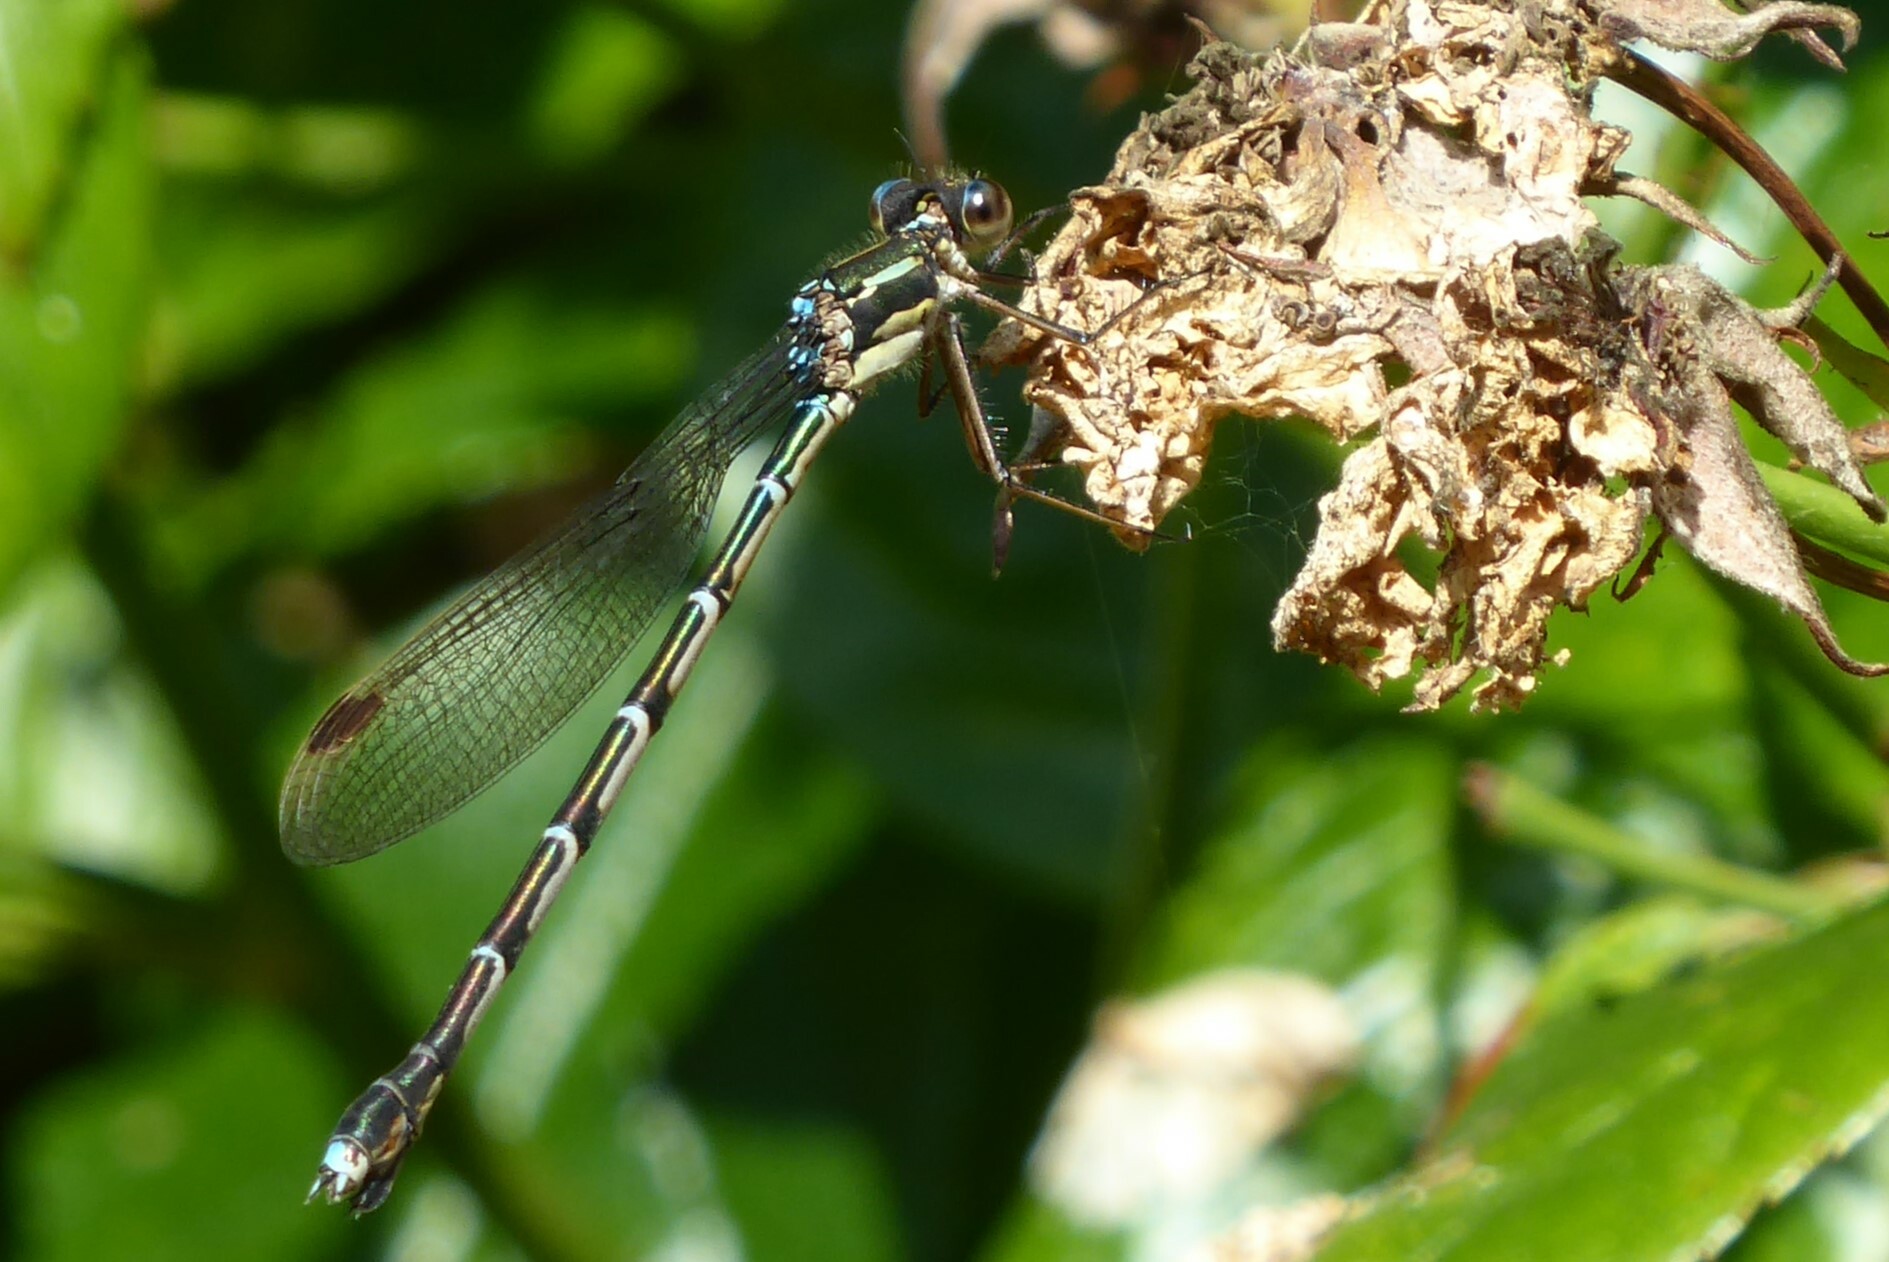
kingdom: Animalia
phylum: Arthropoda
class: Insecta
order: Odonata
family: Lestidae
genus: Austrolestes
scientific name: Austrolestes colensonis
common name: Blue damselfly
